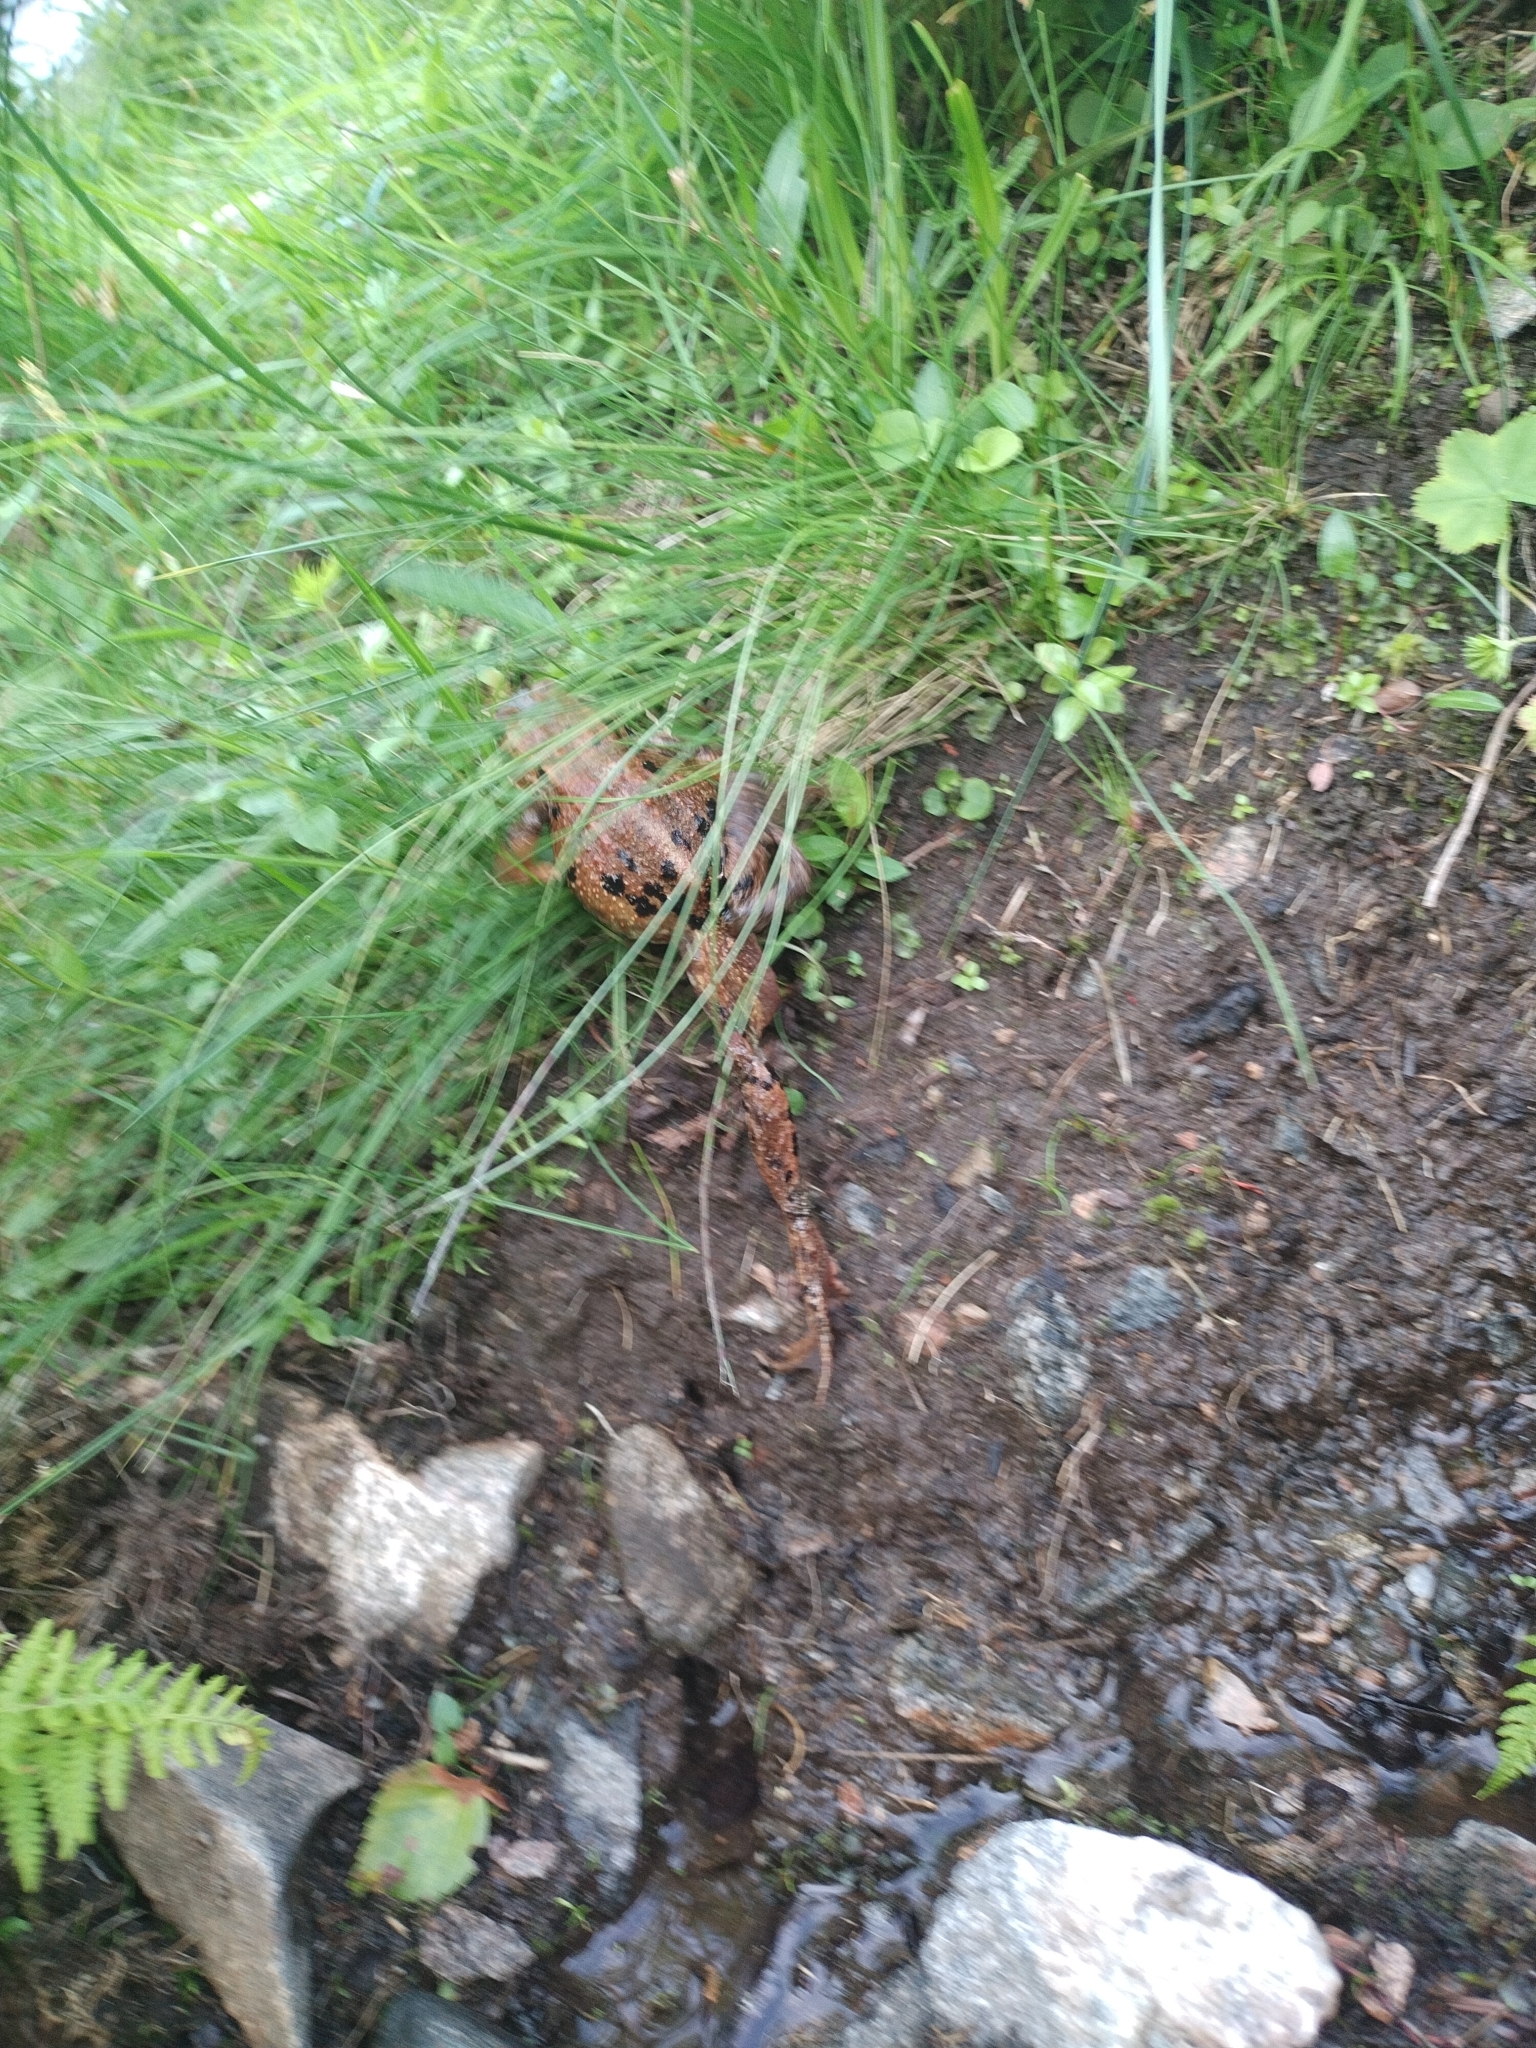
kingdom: Animalia
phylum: Chordata
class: Amphibia
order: Anura
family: Ranidae
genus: Rana
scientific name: Rana temporaria
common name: Common frog
